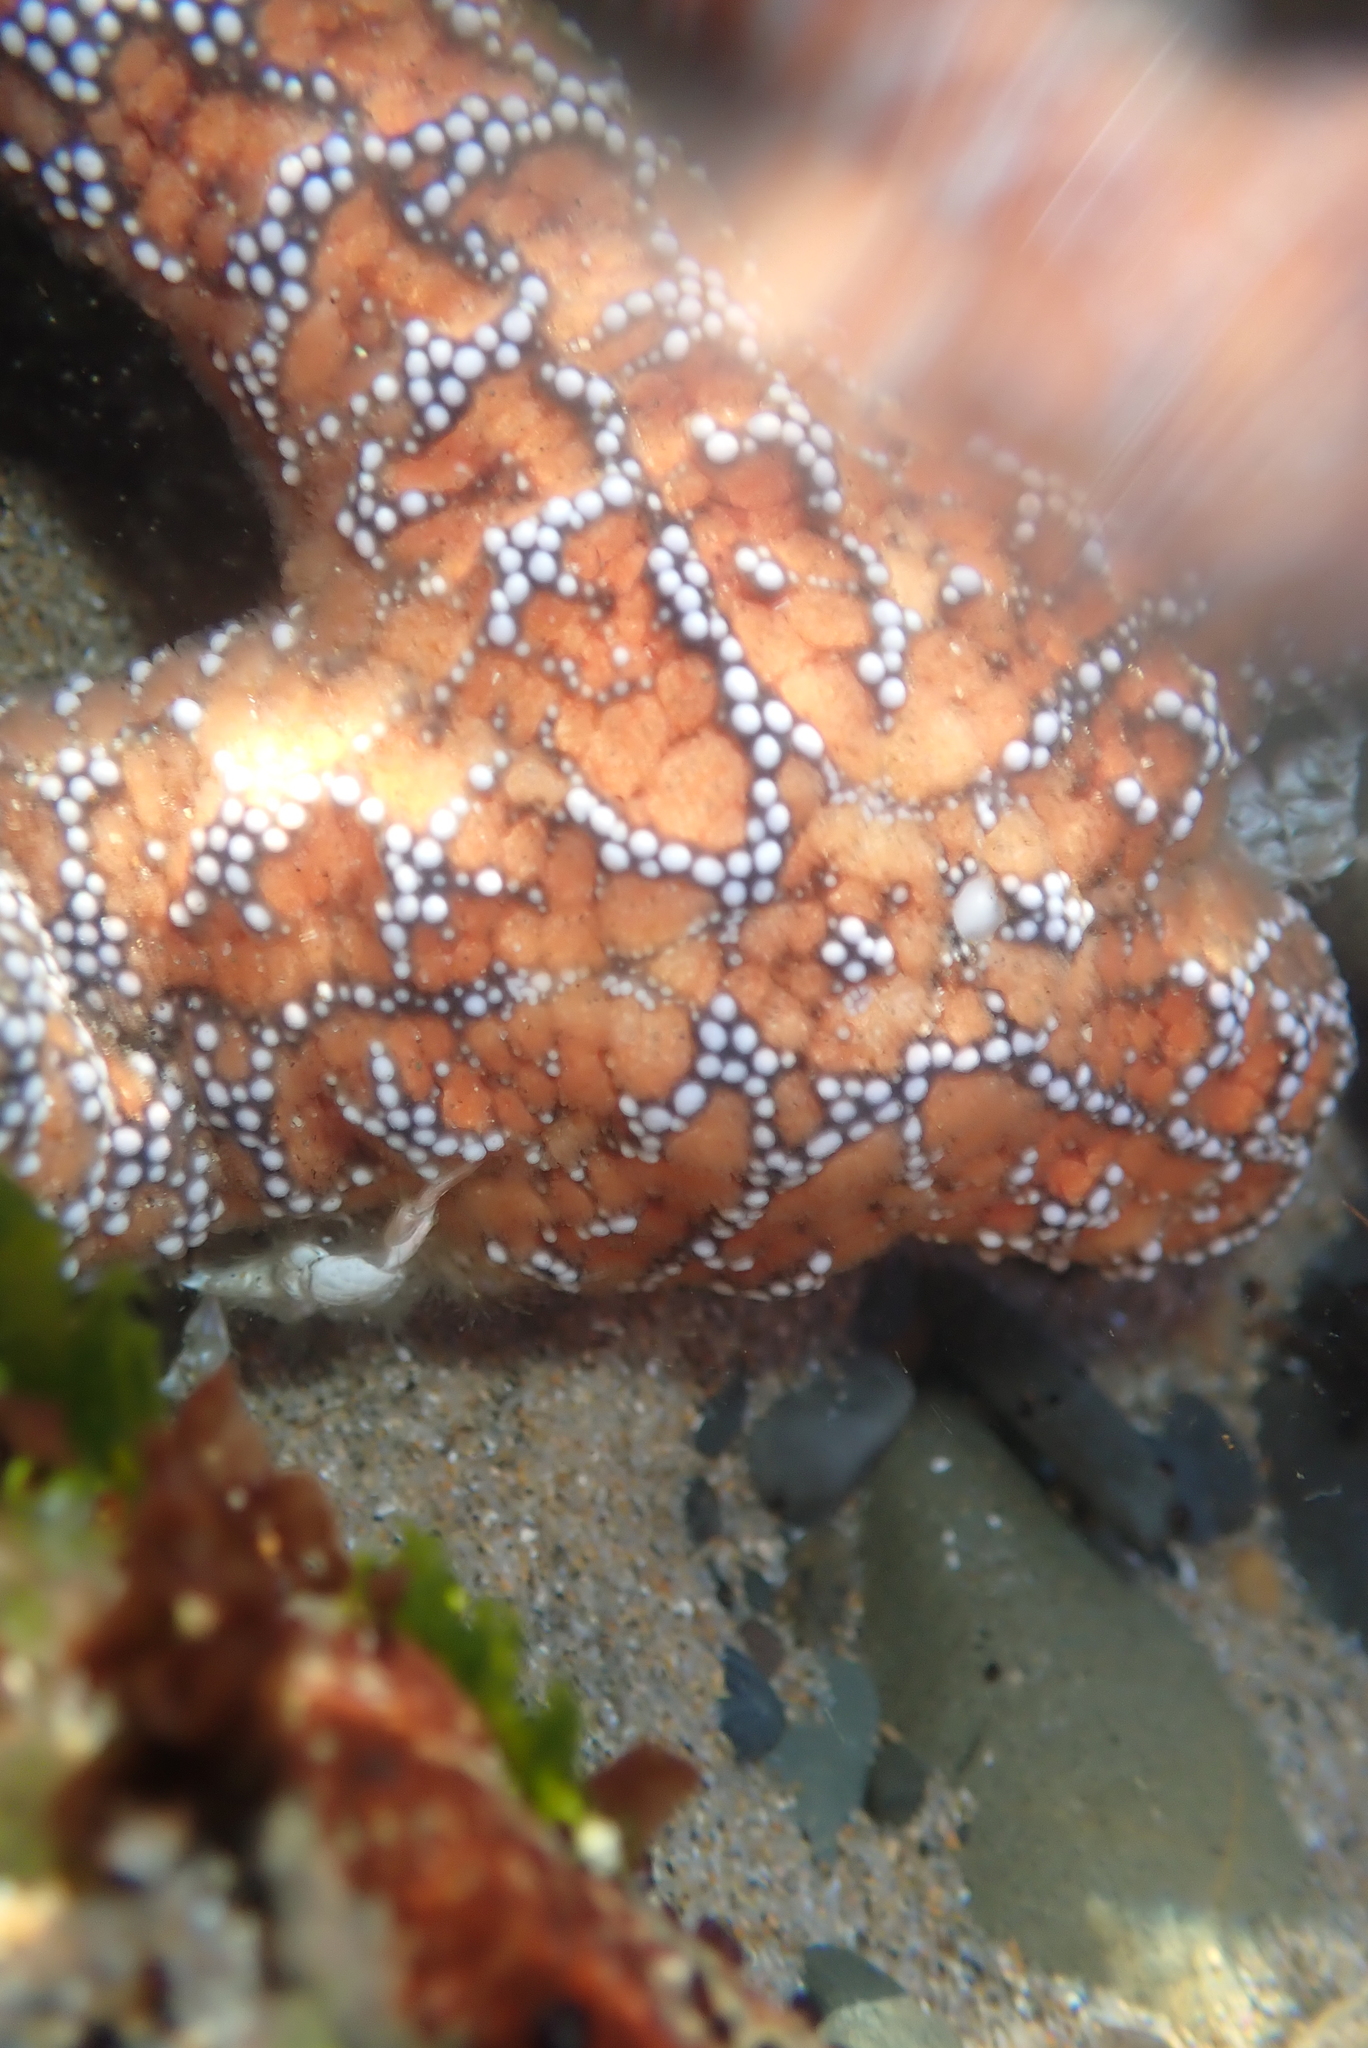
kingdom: Animalia
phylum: Echinodermata
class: Asteroidea
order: Forcipulatida
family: Asteriidae
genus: Pisaster
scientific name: Pisaster ochraceus
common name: Ochre stars
